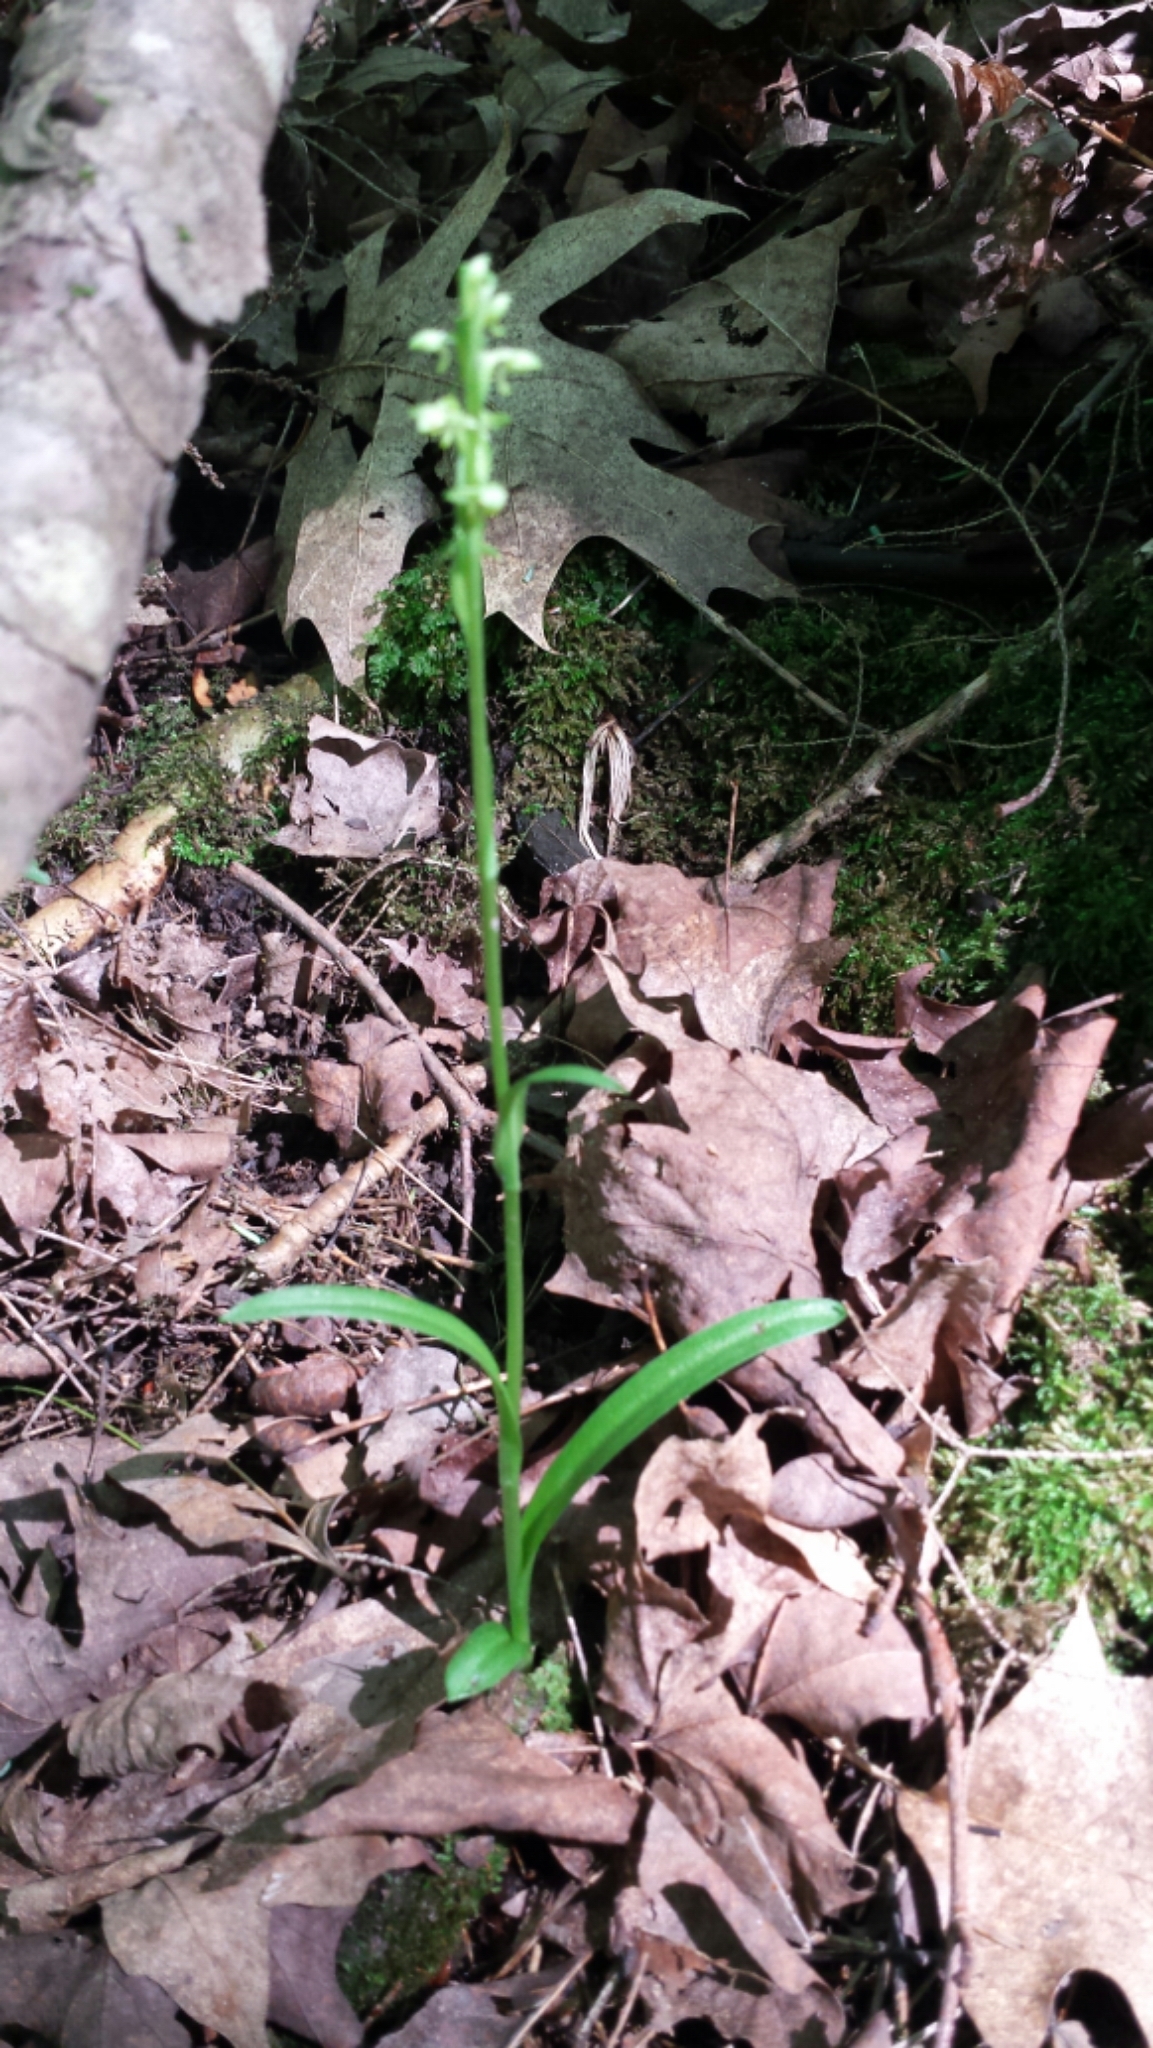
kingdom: Plantae
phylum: Tracheophyta
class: Liliopsida
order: Asparagales
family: Orchidaceae
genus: Platanthera
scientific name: Platanthera aquilonis
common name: Northern green orchid
